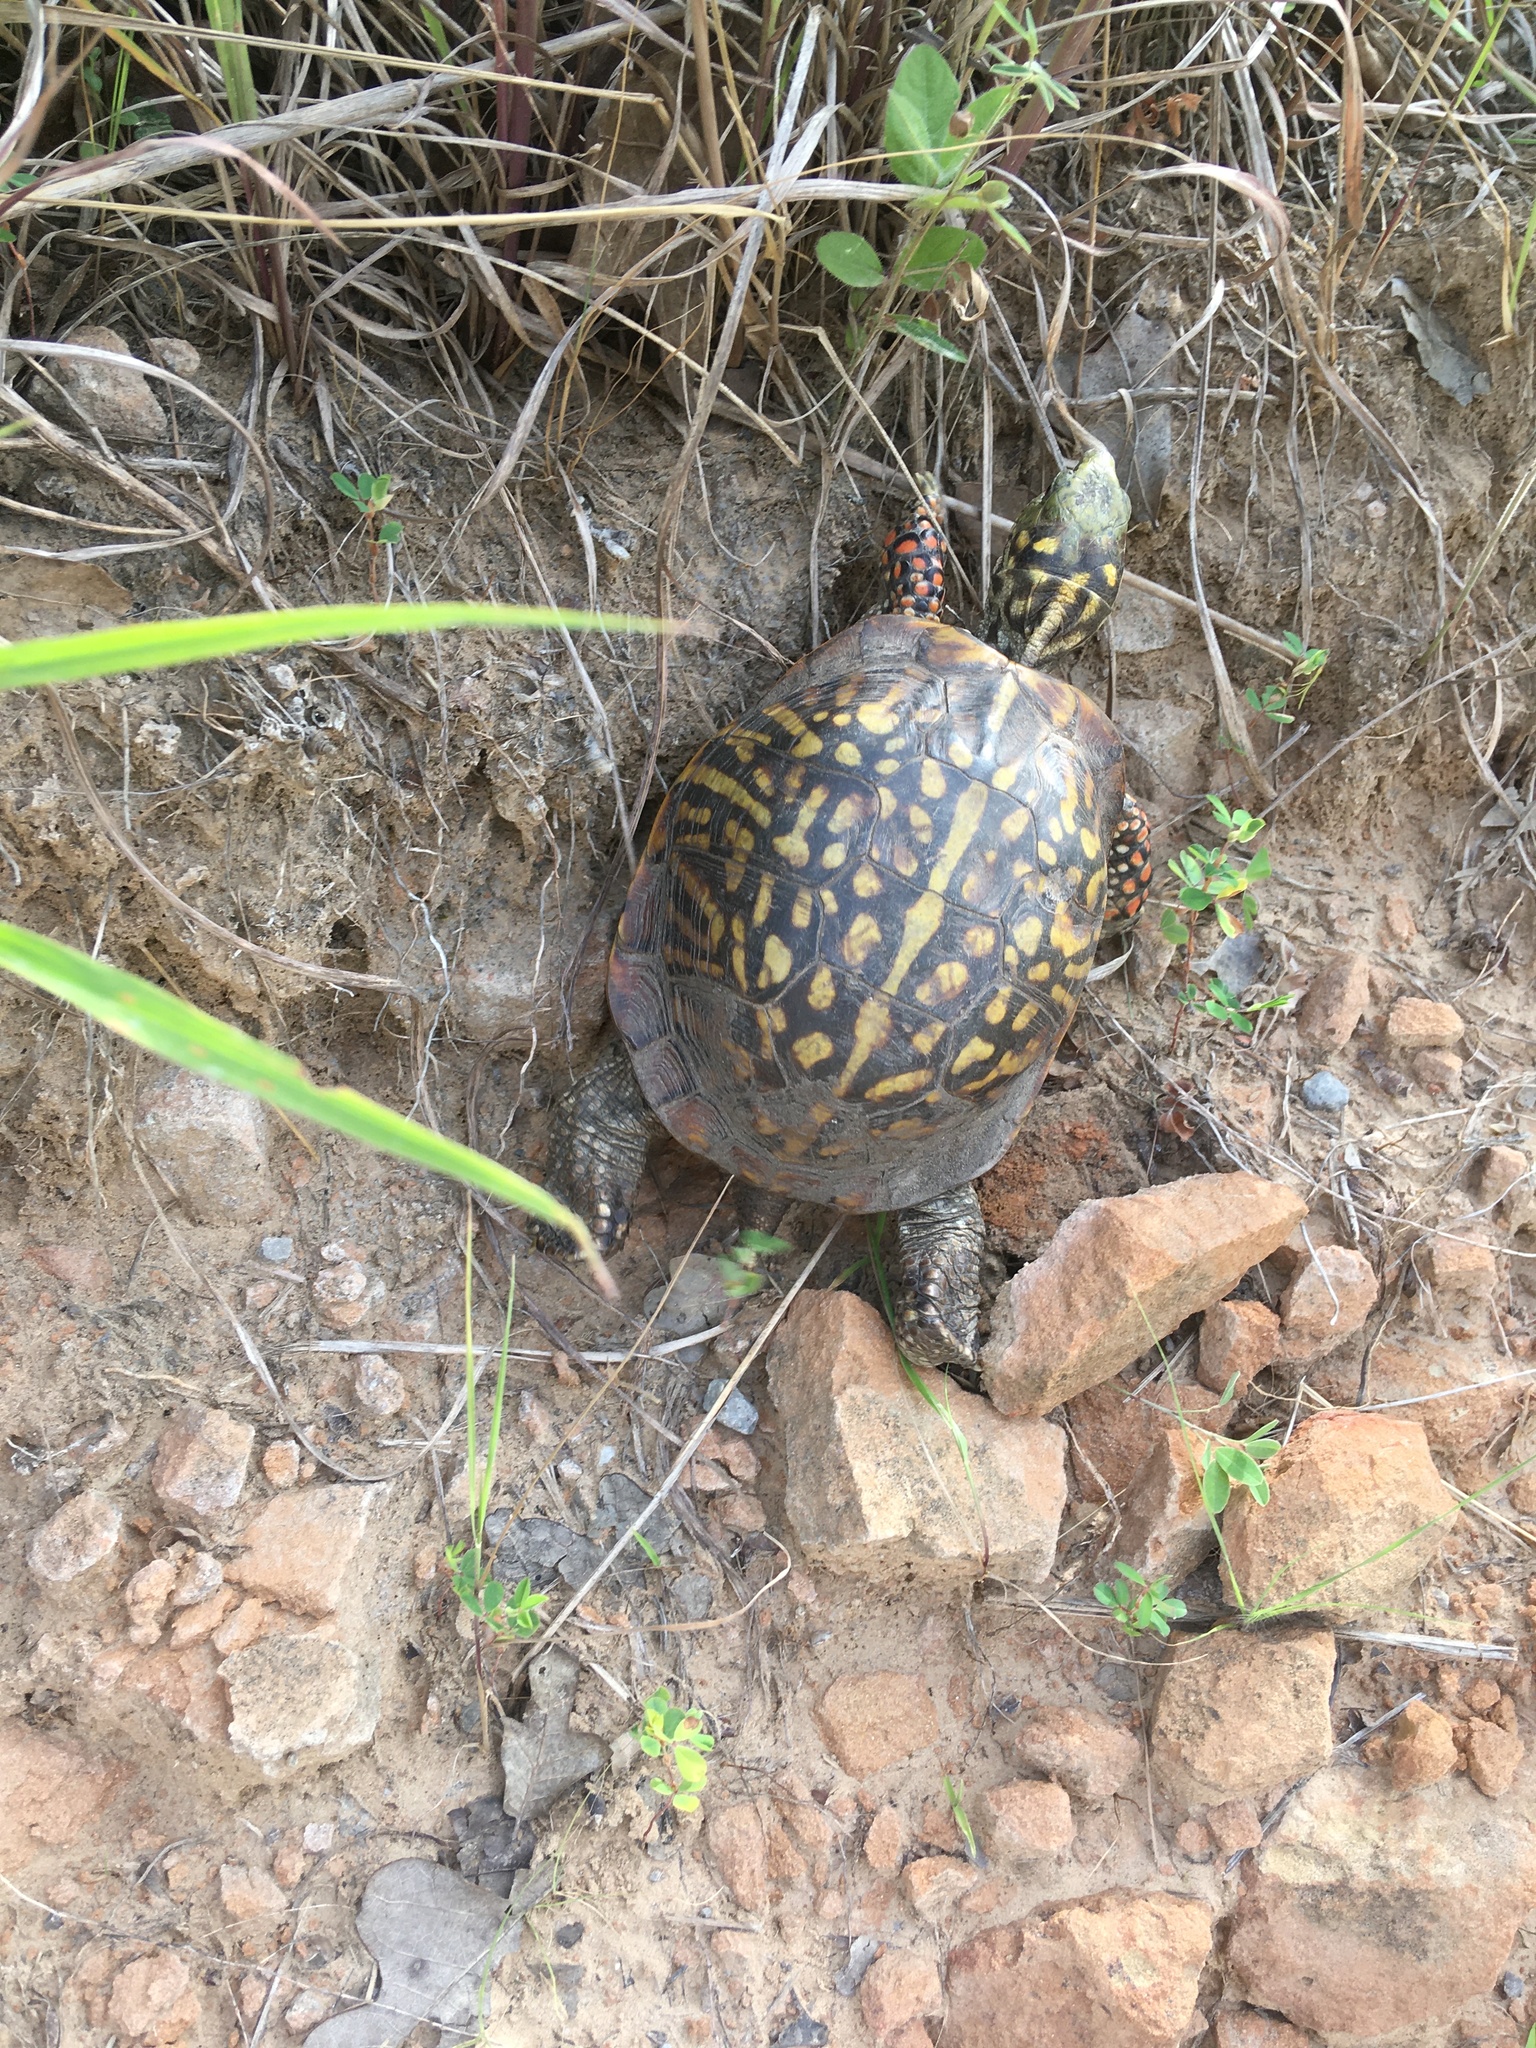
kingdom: Animalia
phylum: Chordata
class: Testudines
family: Emydidae
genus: Terrapene
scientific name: Terrapene ornata
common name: Western box turtle
